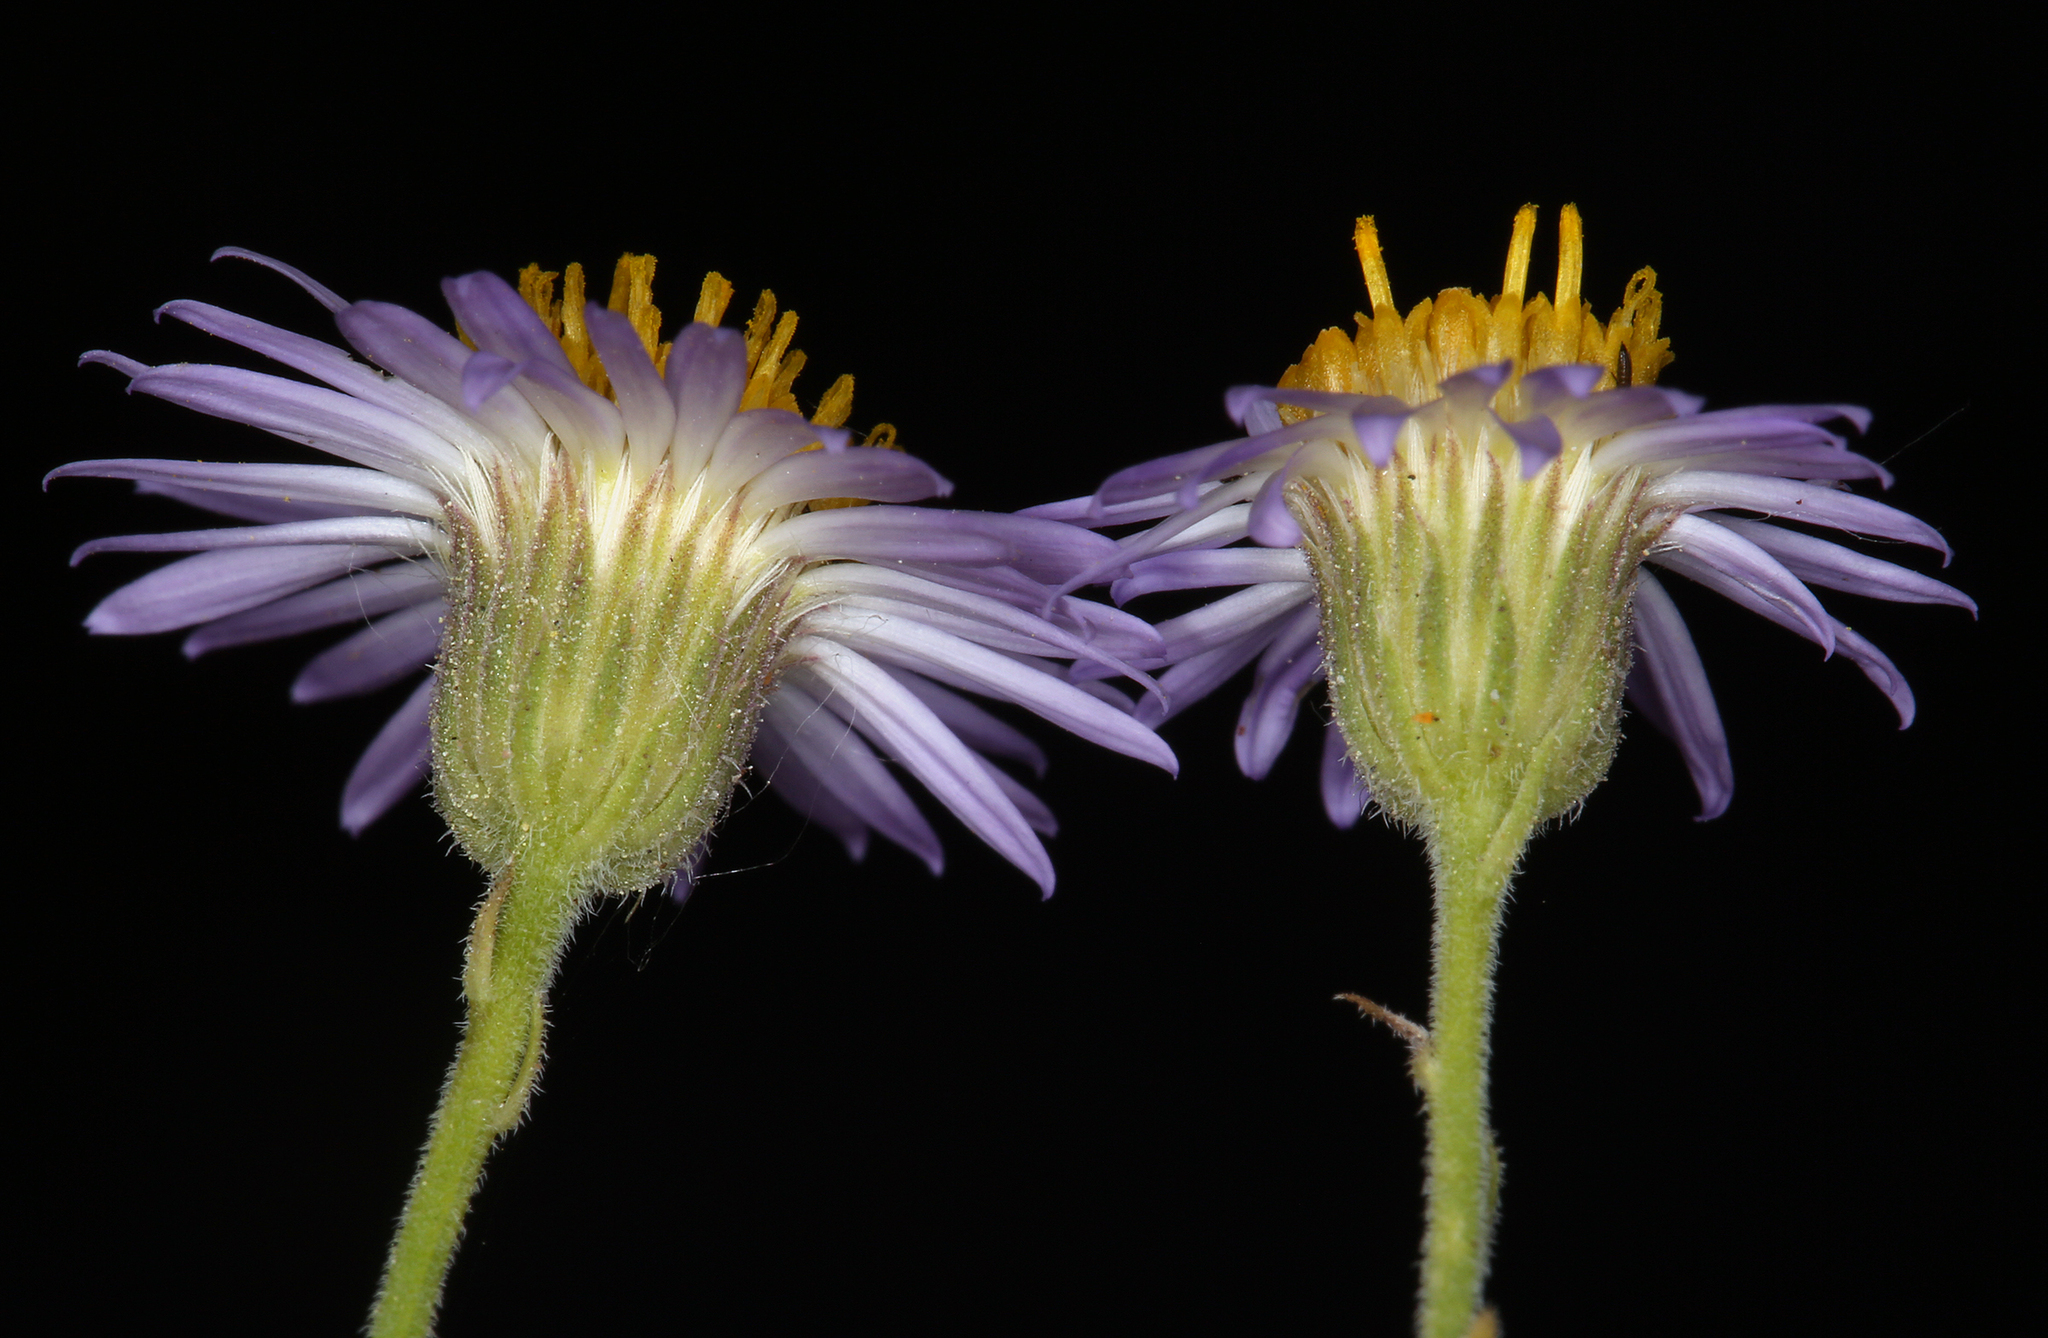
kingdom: Plantae
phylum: Tracheophyta
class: Magnoliopsida
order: Asterales
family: Asteraceae
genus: Erigeron
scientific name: Erigeron breweri
